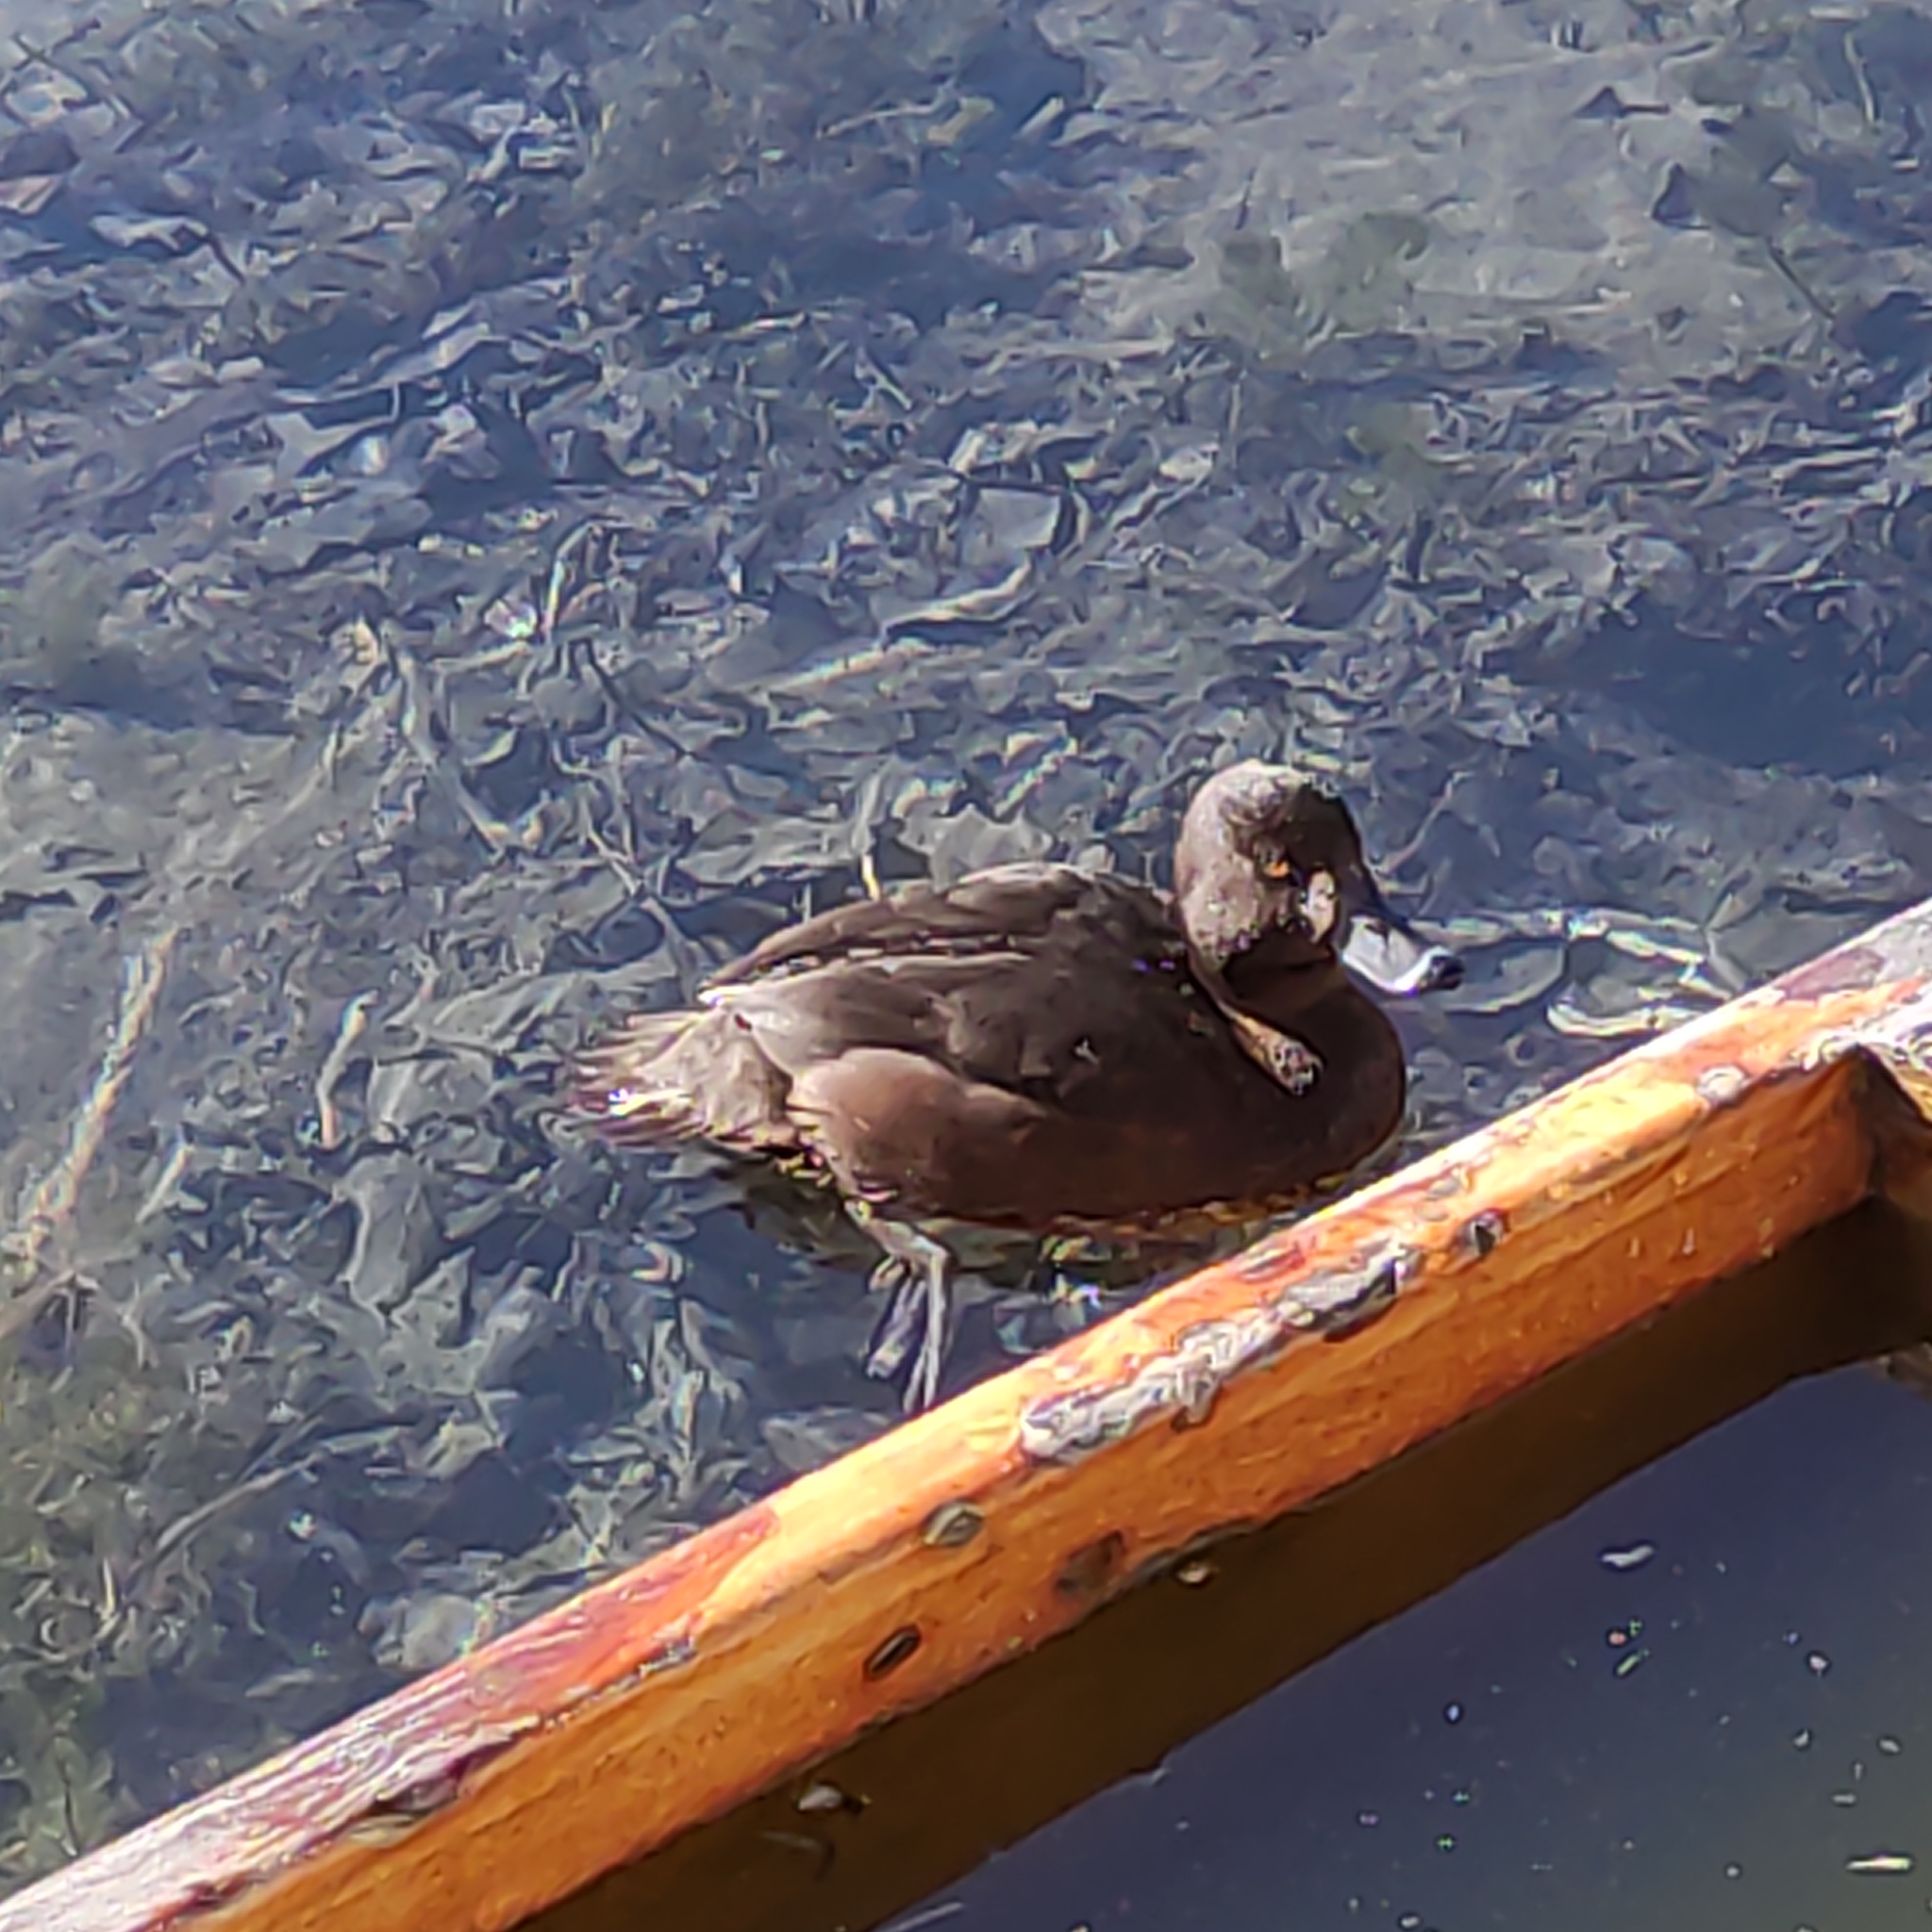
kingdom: Animalia
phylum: Chordata
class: Aves
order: Anseriformes
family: Anatidae
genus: Aythya
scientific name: Aythya novaeseelandiae
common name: New zealand scaup
